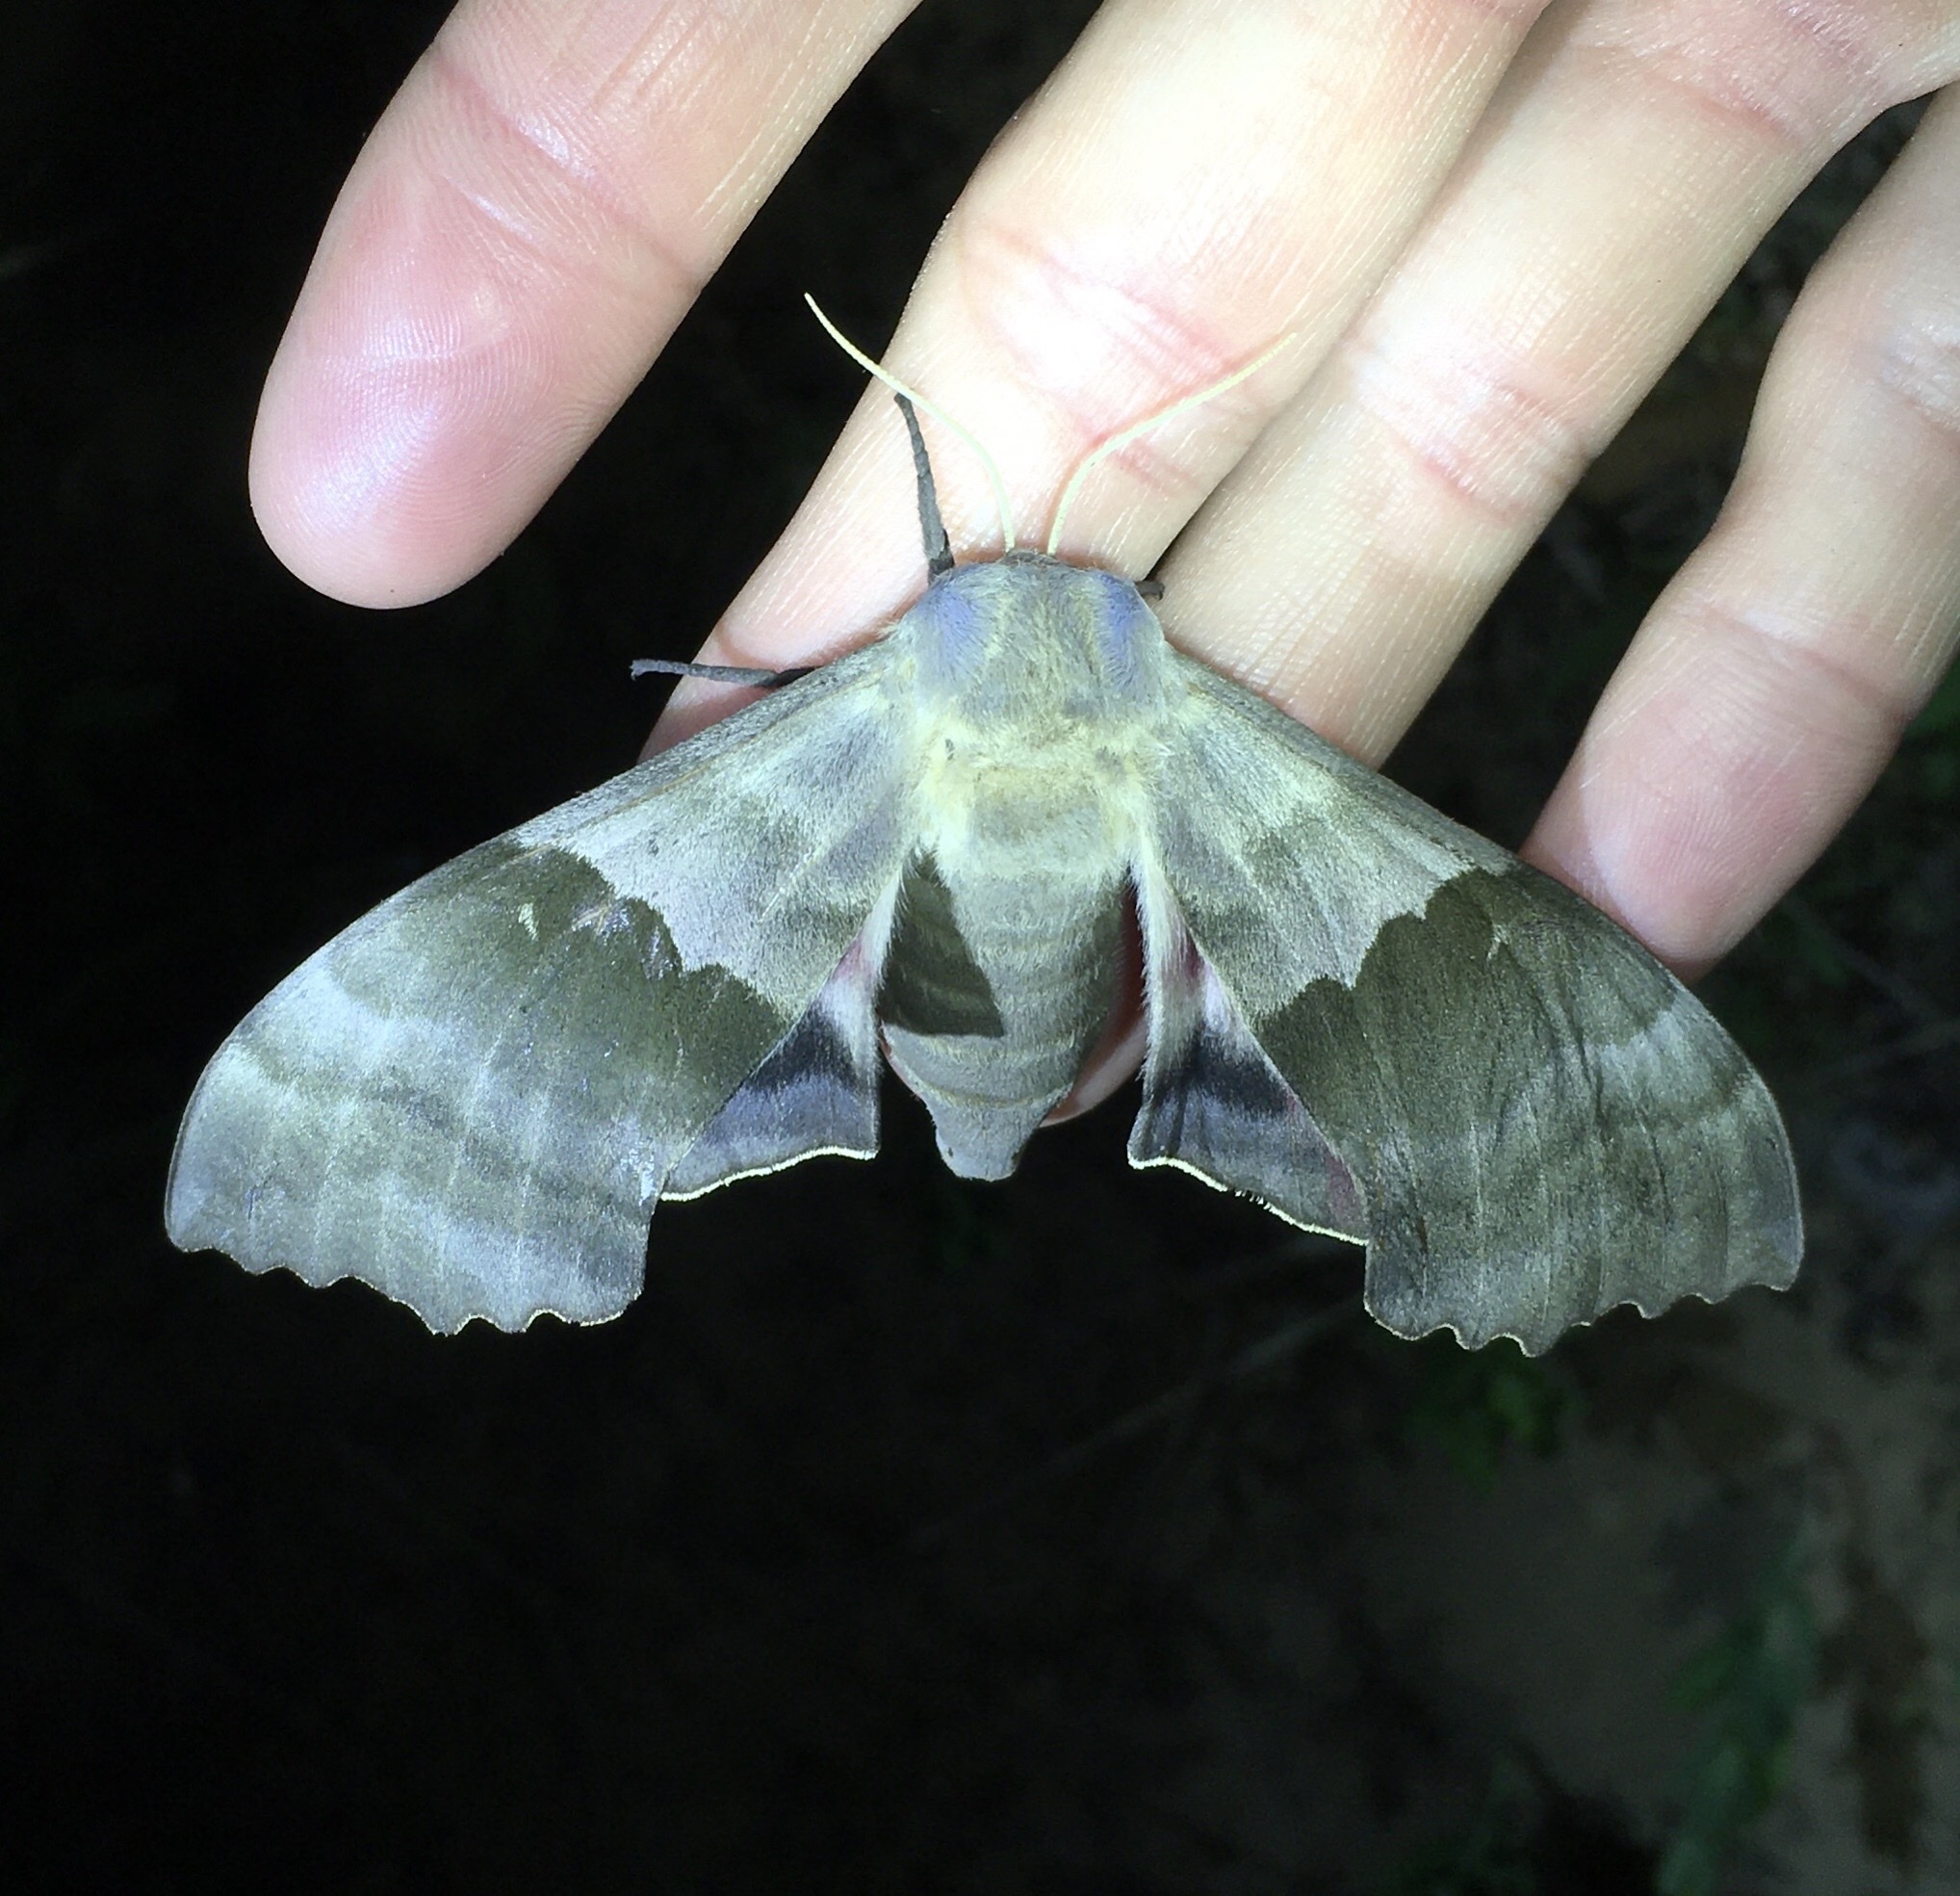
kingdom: Animalia
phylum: Arthropoda
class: Insecta
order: Lepidoptera
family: Sphingidae
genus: Pachysphinx
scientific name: Pachysphinx modesta
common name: Big poplar sphinx
